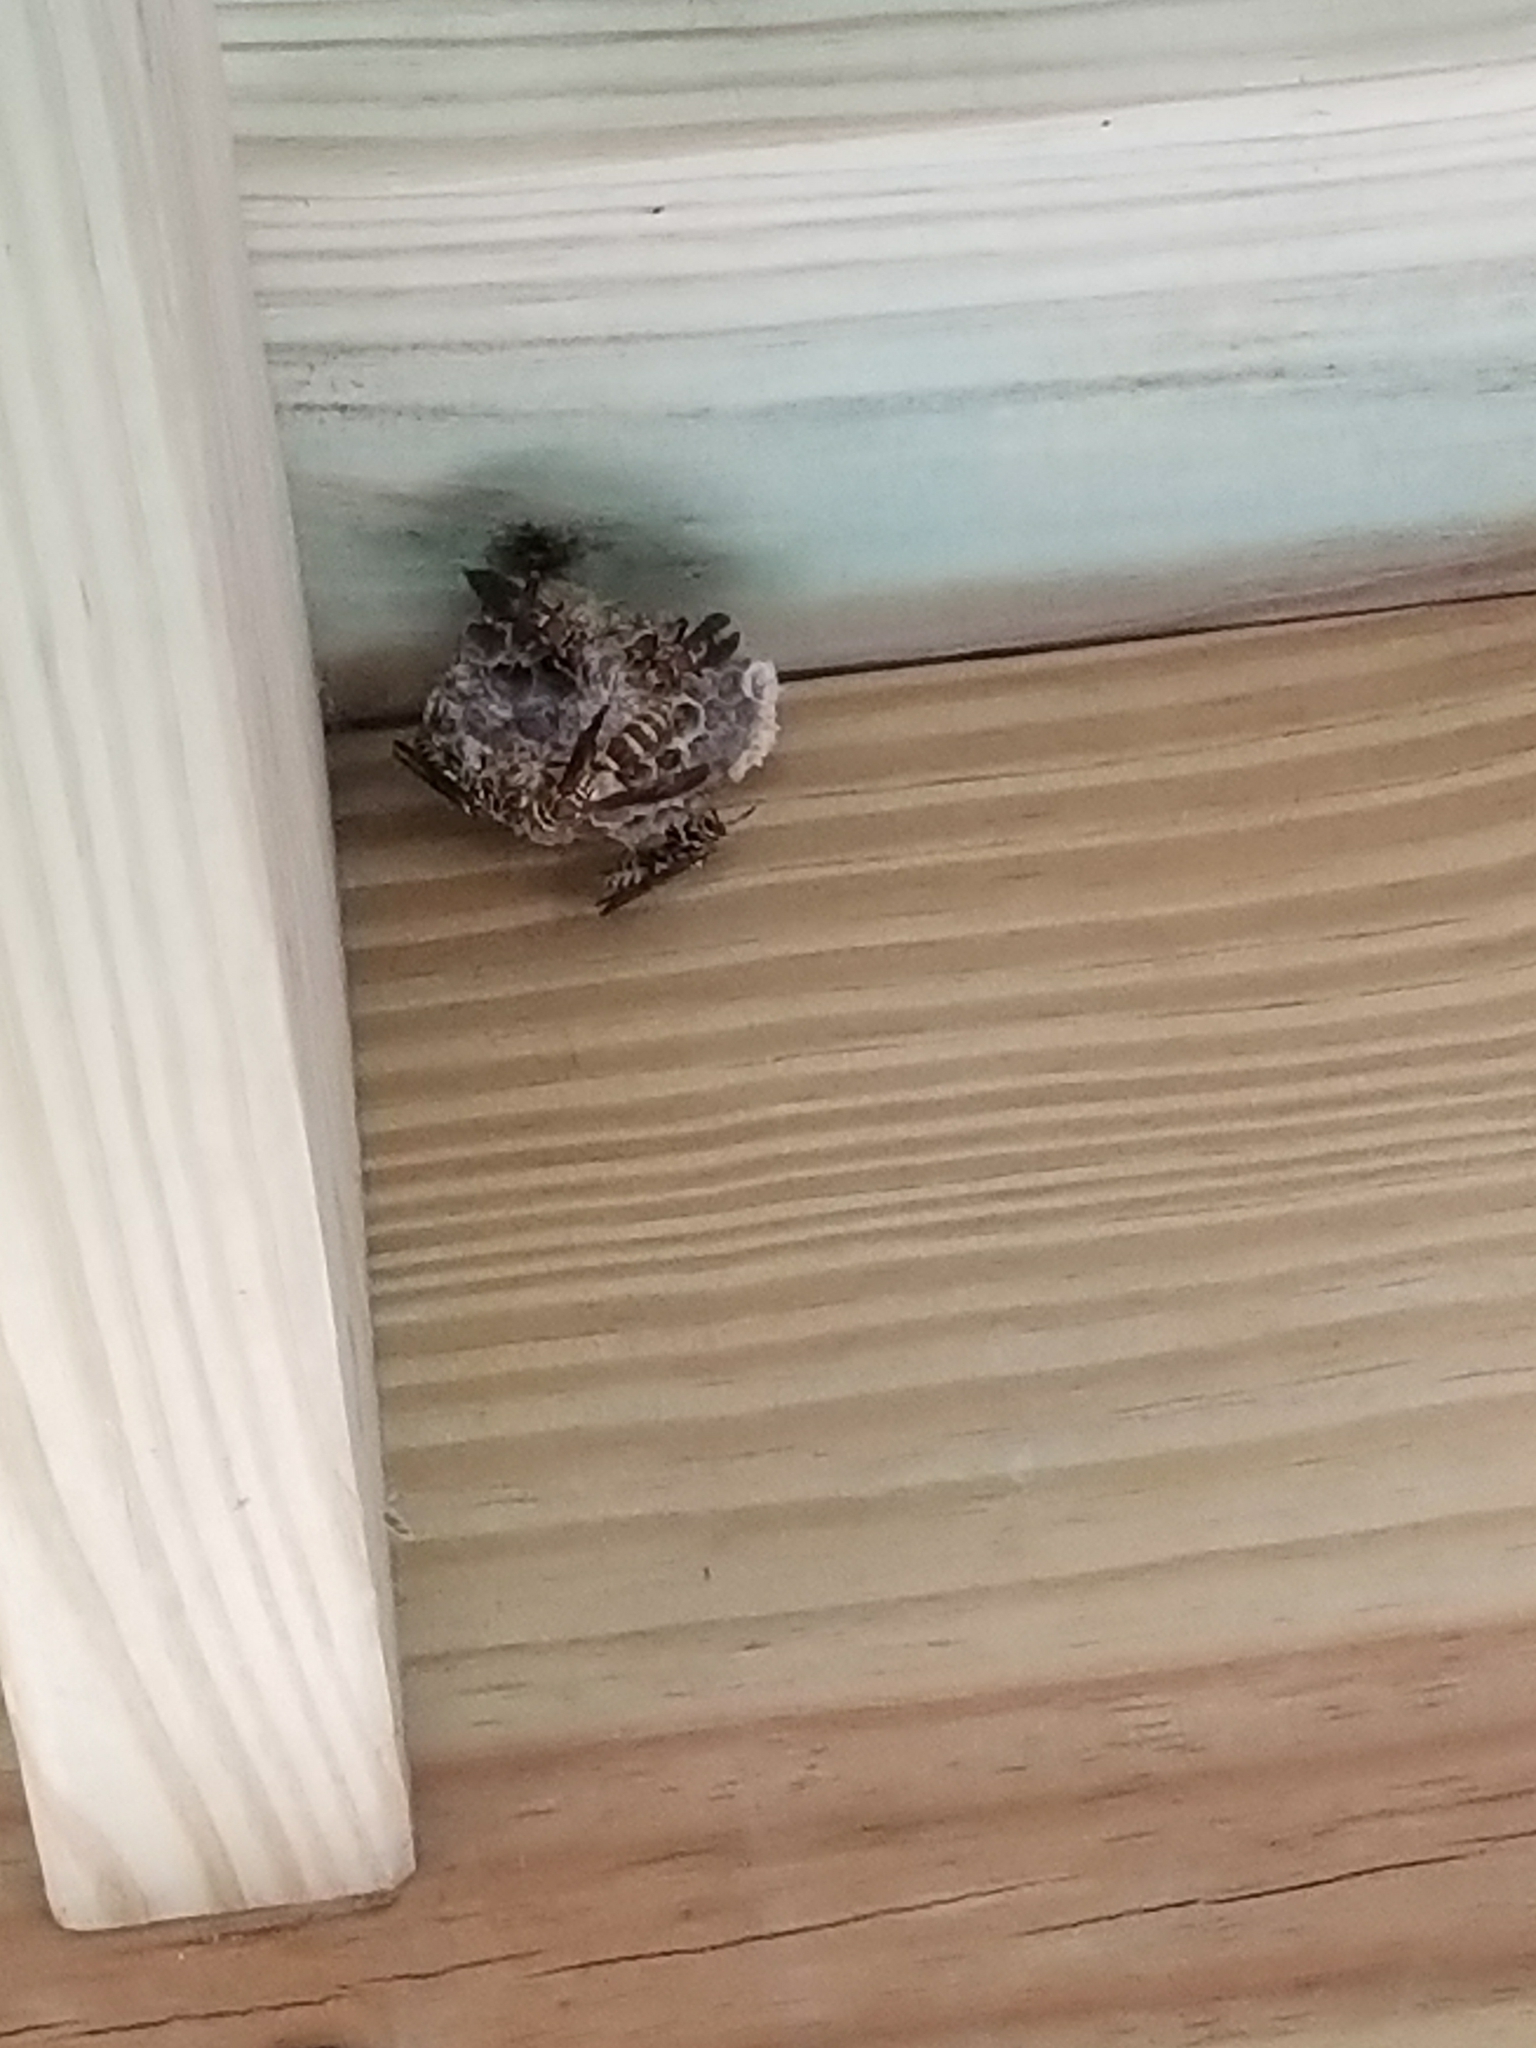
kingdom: Animalia
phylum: Arthropoda
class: Insecta
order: Hymenoptera
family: Eumenidae
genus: Polistes
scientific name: Polistes exclamans
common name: Paper wasp
